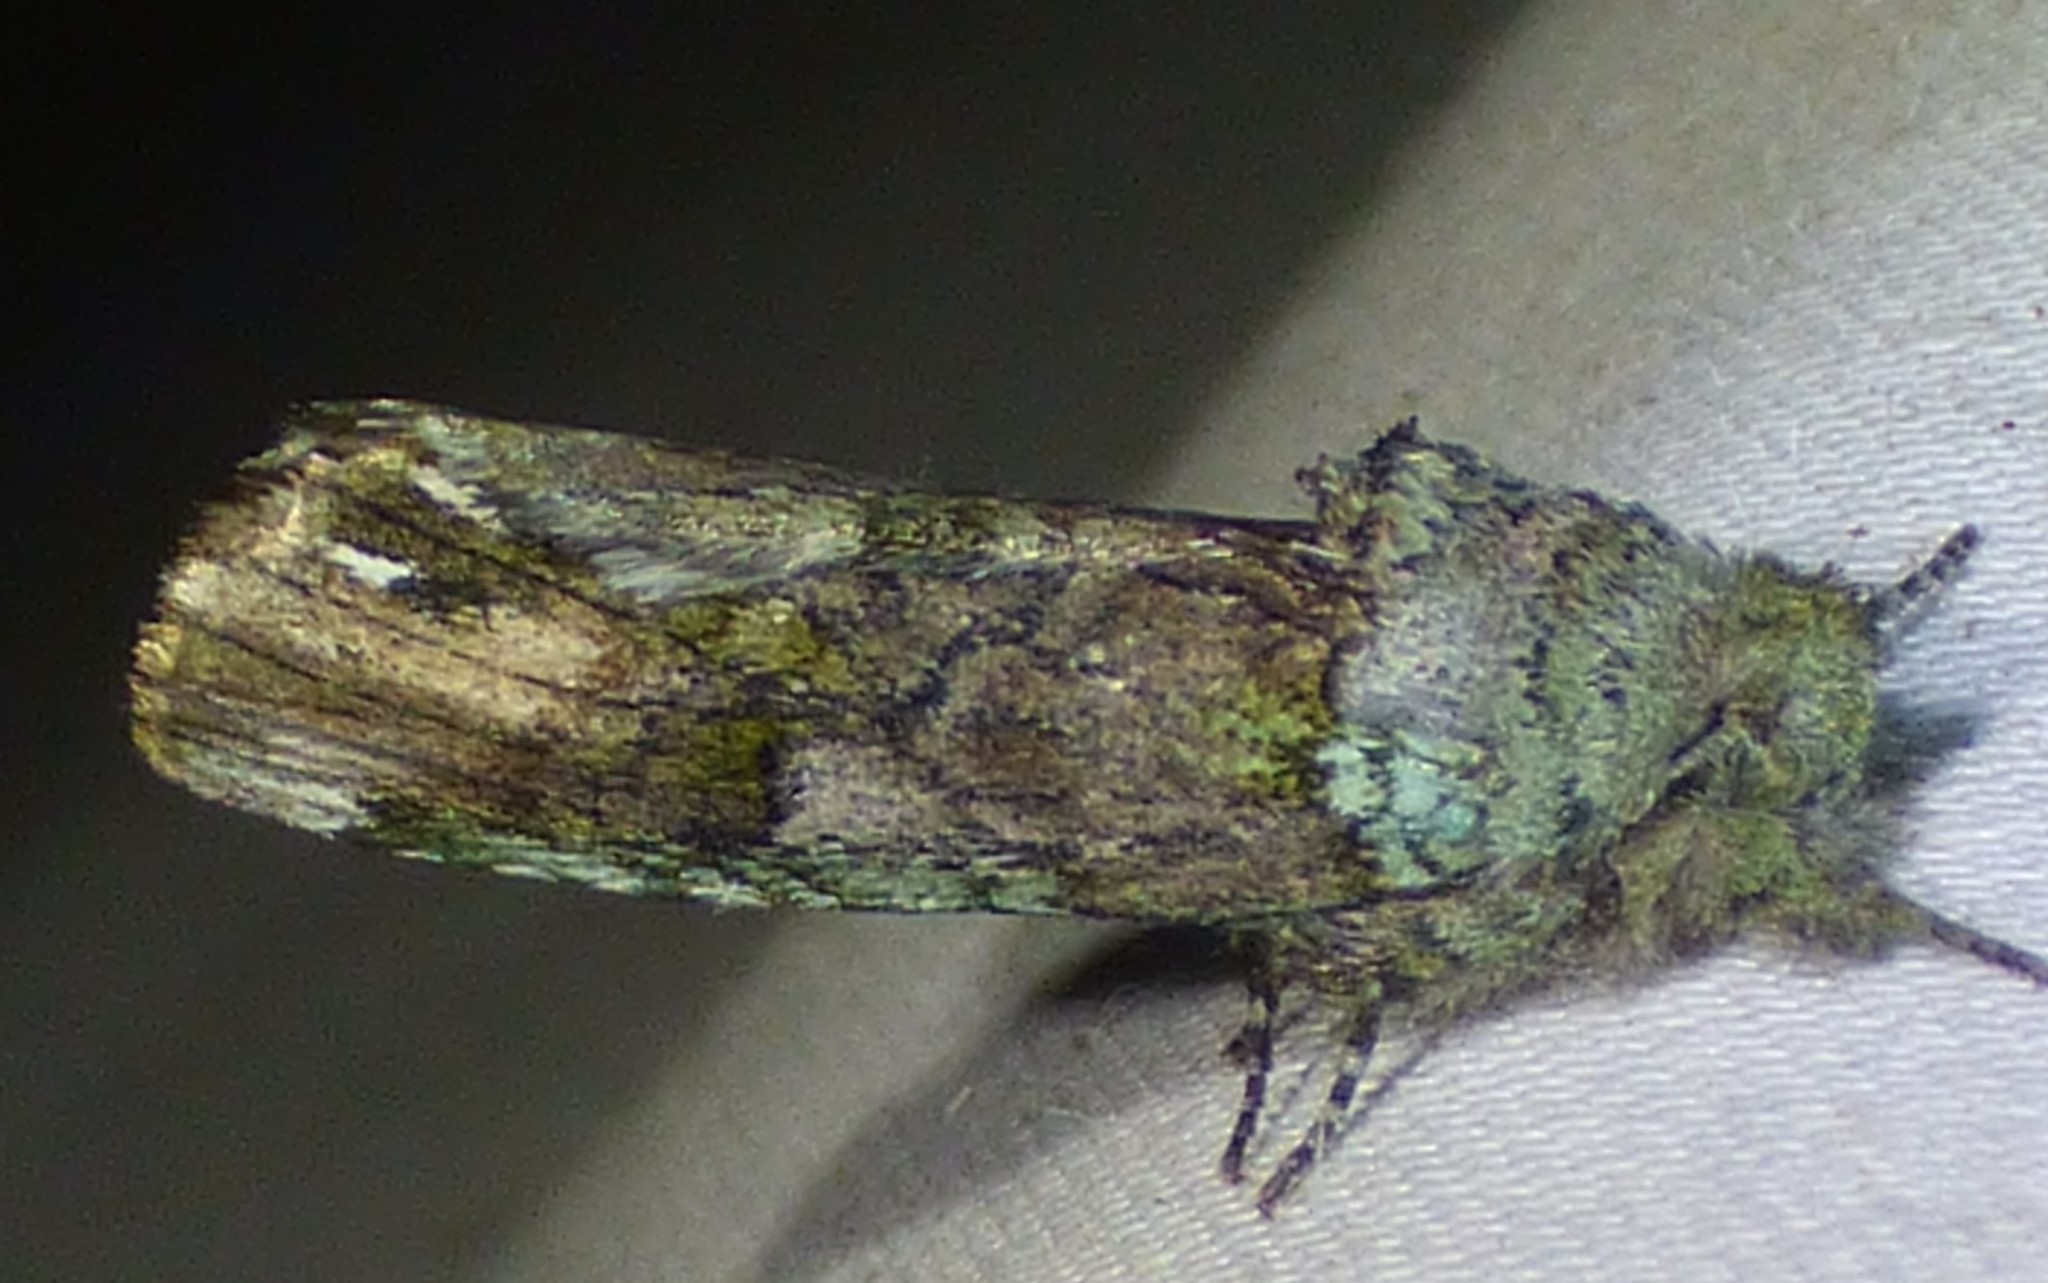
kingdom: Animalia
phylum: Arthropoda
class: Insecta
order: Lepidoptera
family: Notodontidae
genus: Schizura
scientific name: Schizura
